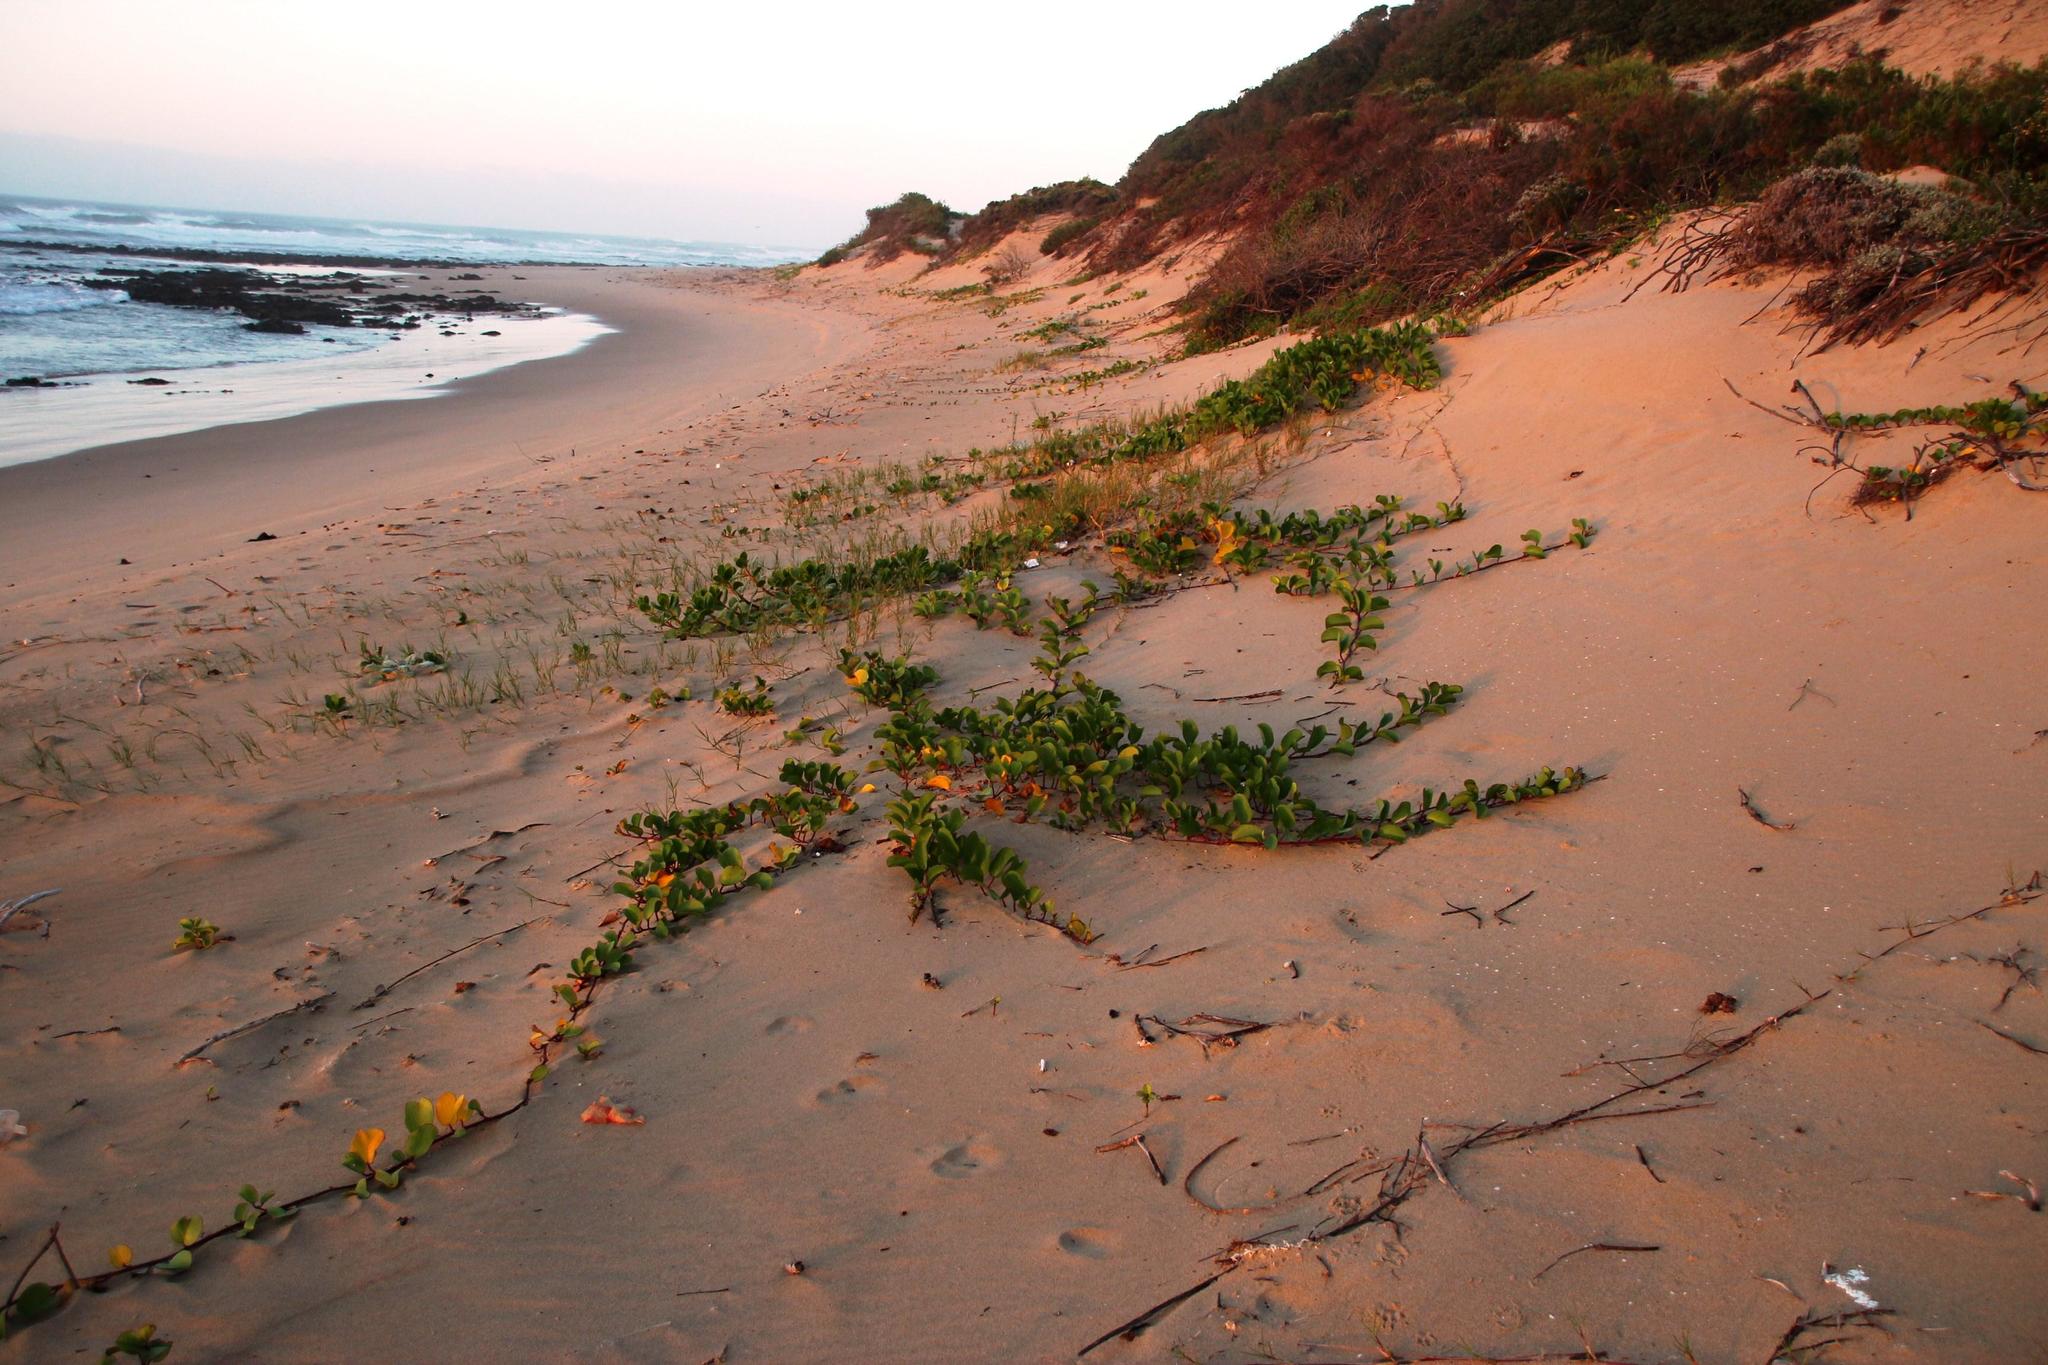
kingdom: Plantae
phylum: Tracheophyta
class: Magnoliopsida
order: Solanales
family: Convolvulaceae
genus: Ipomoea
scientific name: Ipomoea pes-caprae
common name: Beach morning glory
